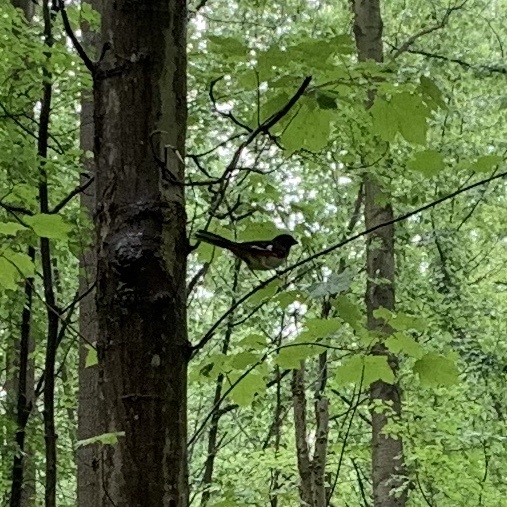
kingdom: Animalia
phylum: Chordata
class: Aves
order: Passeriformes
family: Passerellidae
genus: Pipilo
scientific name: Pipilo erythrophthalmus
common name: Eastern towhee
